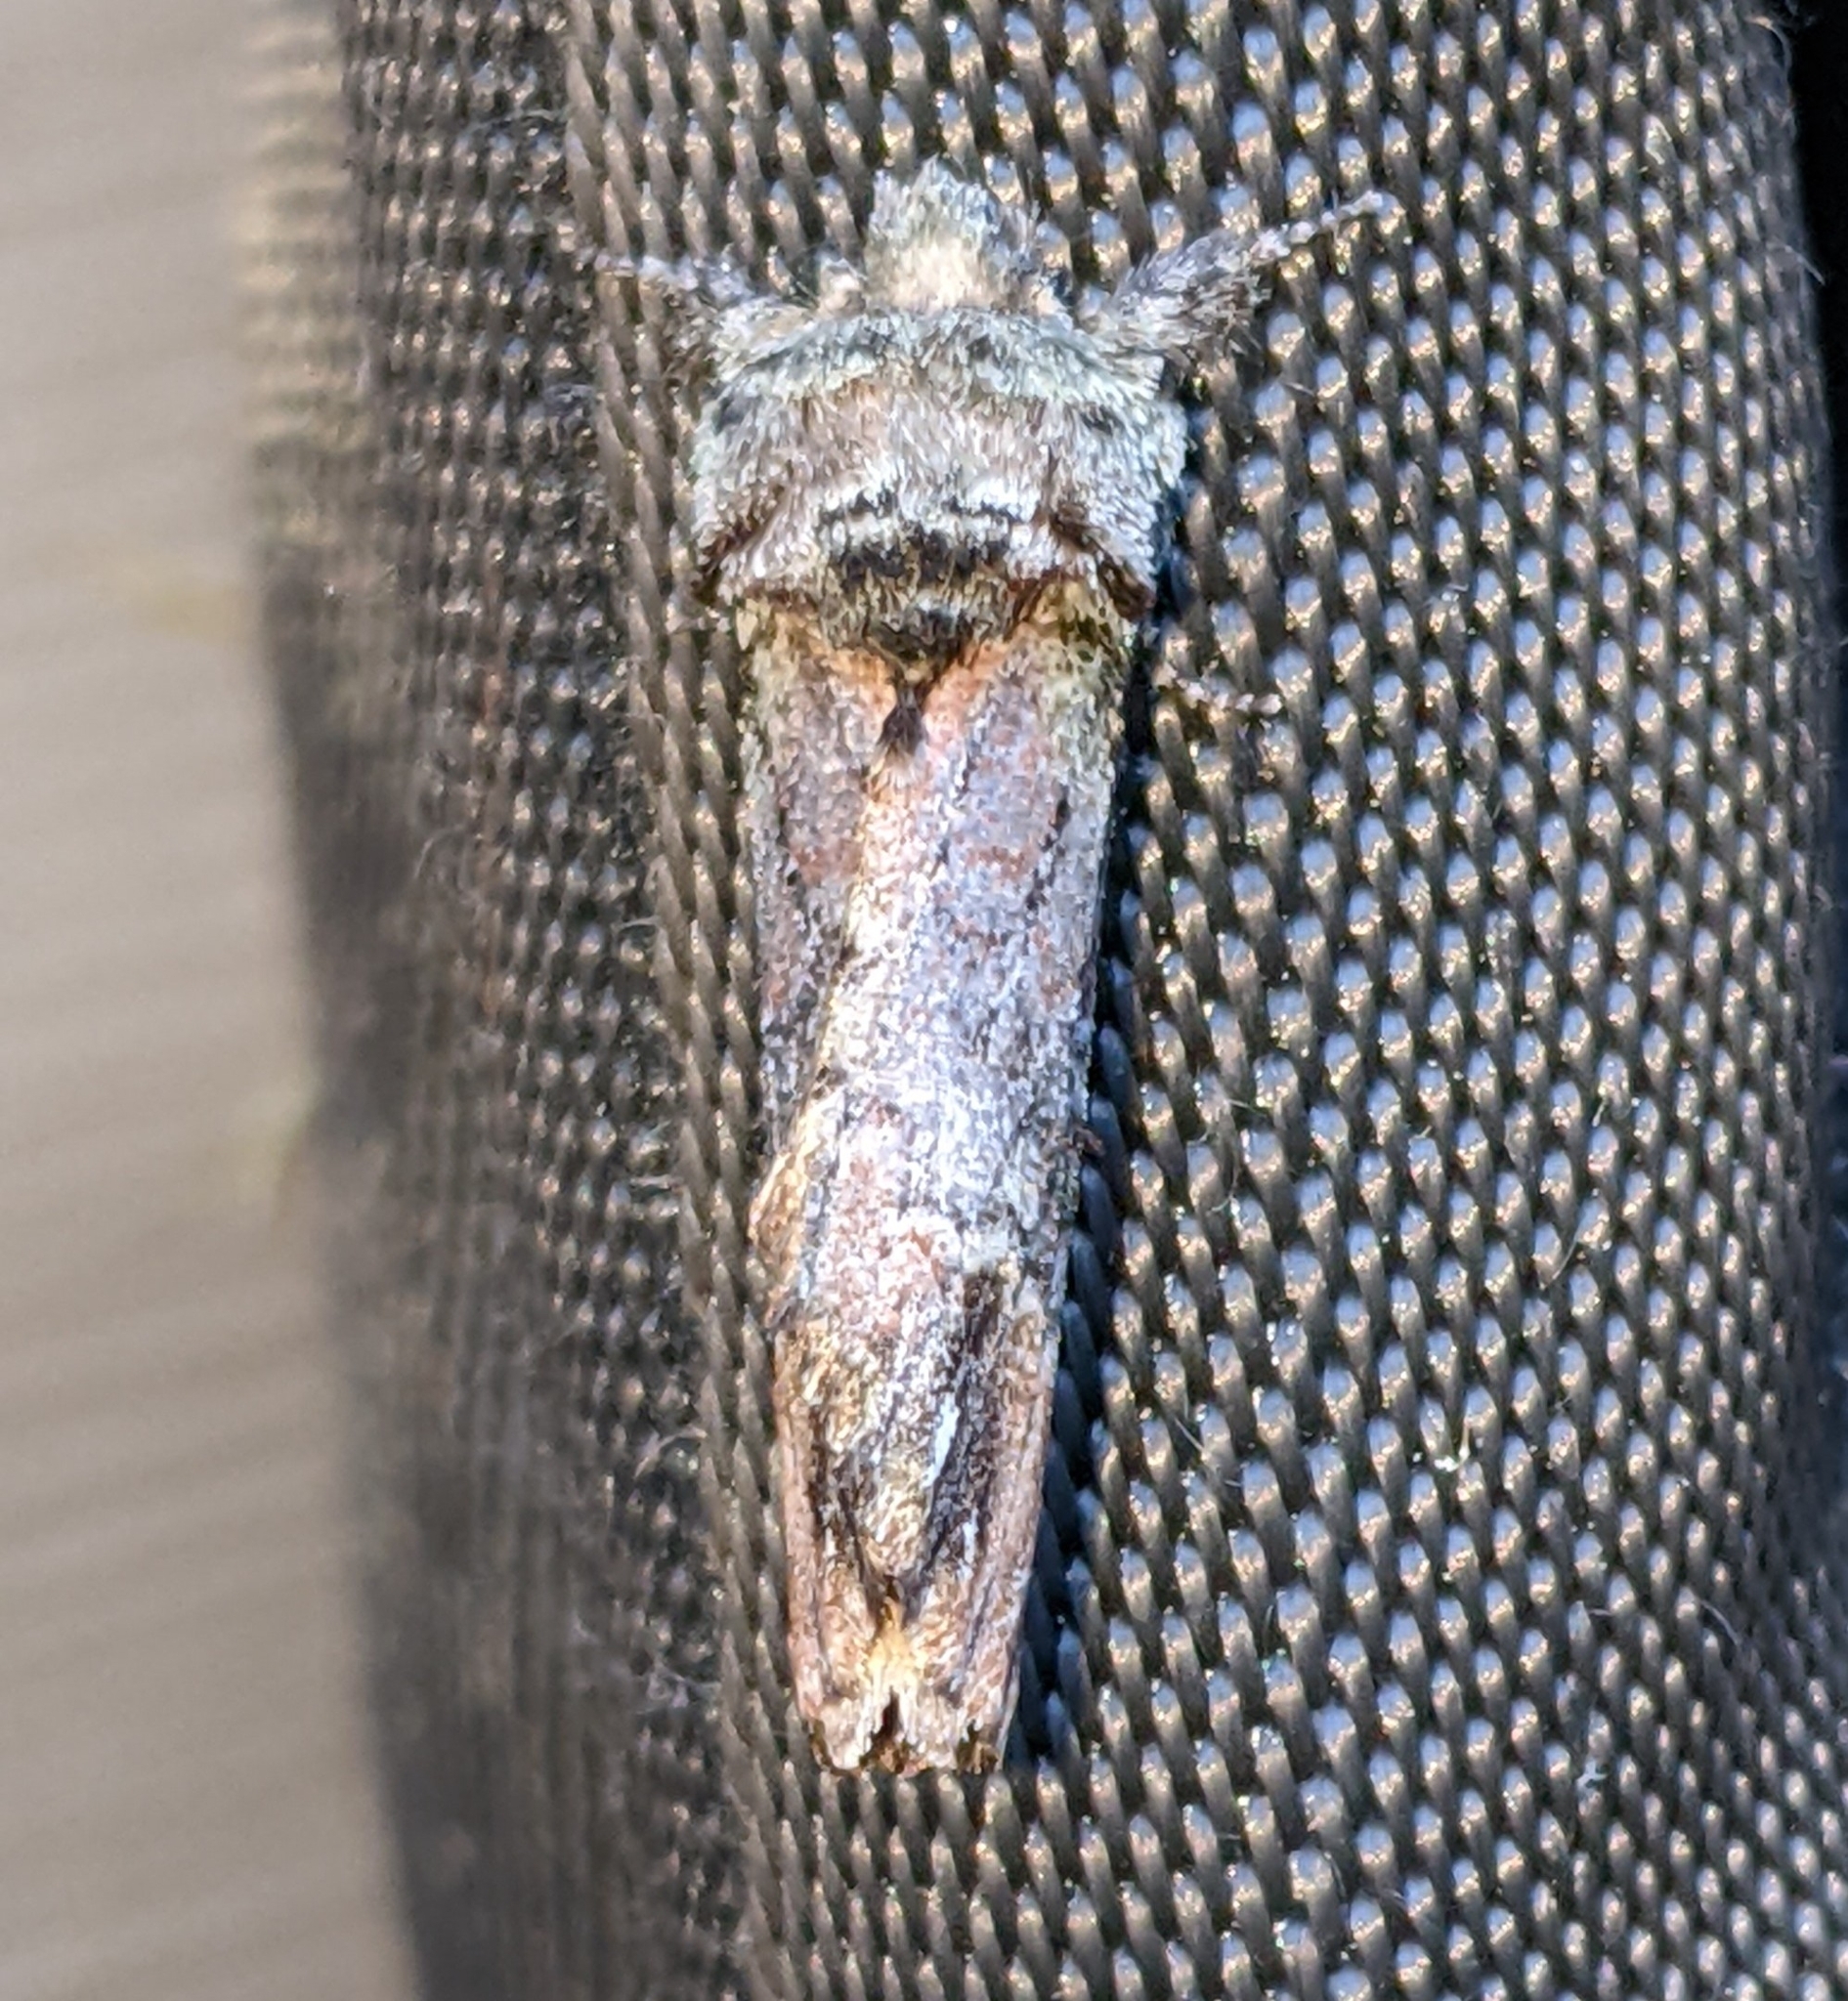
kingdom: Animalia
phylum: Arthropoda
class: Insecta
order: Lepidoptera
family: Notodontidae
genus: Schizura
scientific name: Schizura
